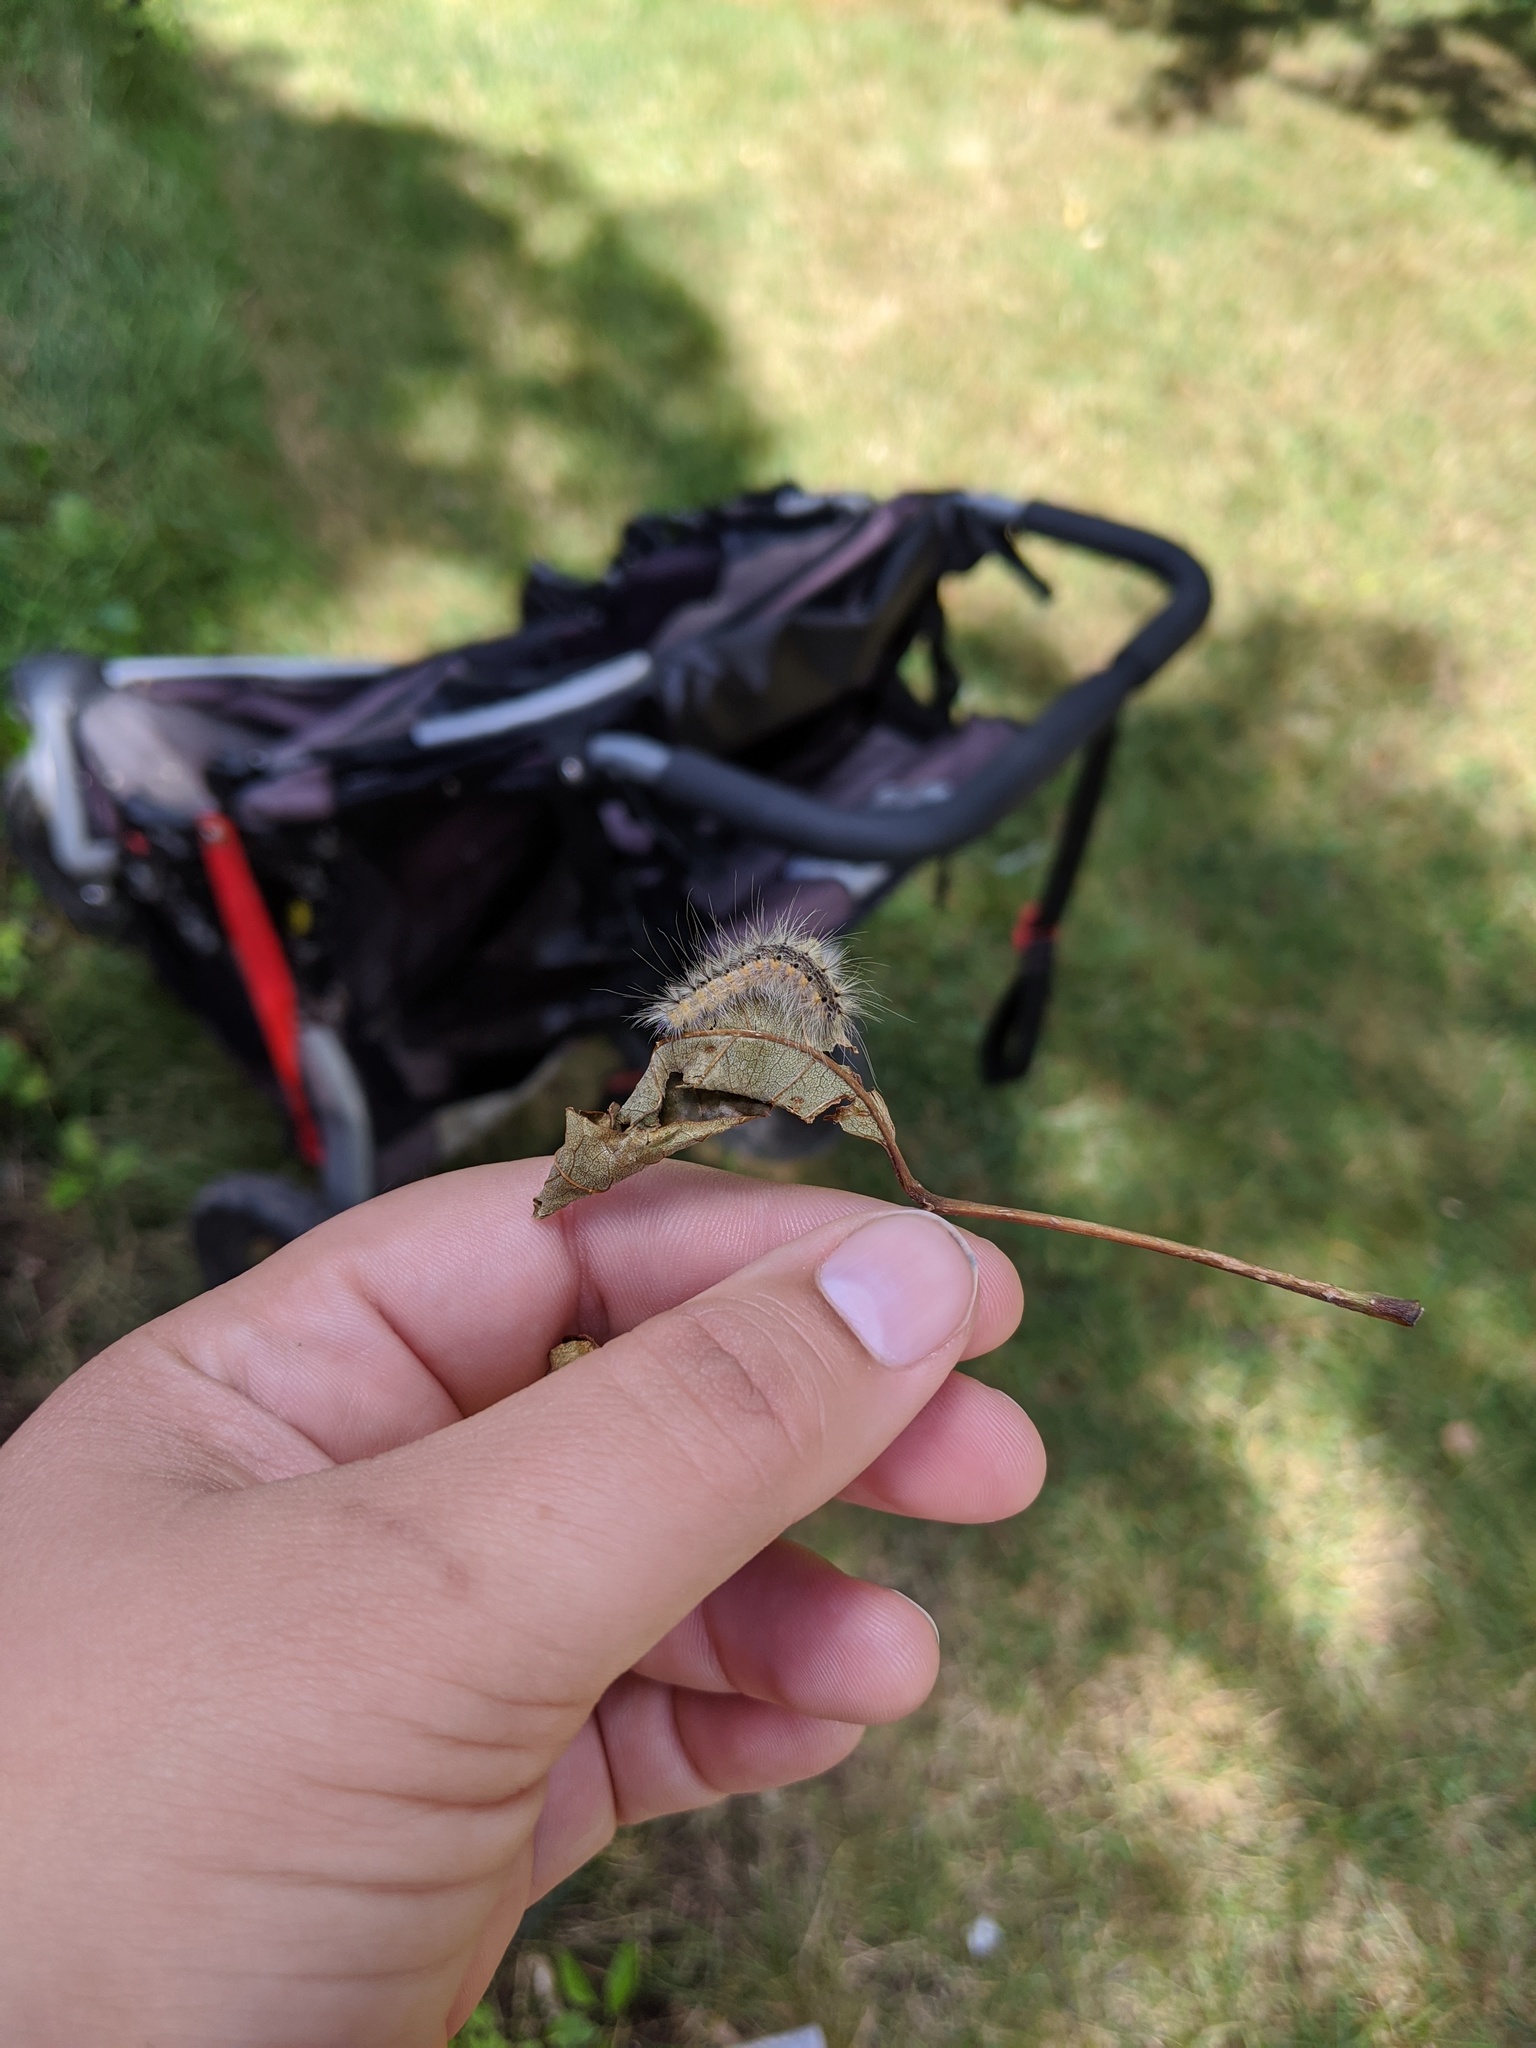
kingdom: Animalia
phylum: Arthropoda
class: Insecta
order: Lepidoptera
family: Erebidae
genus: Hyphantria
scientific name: Hyphantria cunea
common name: American white moth
